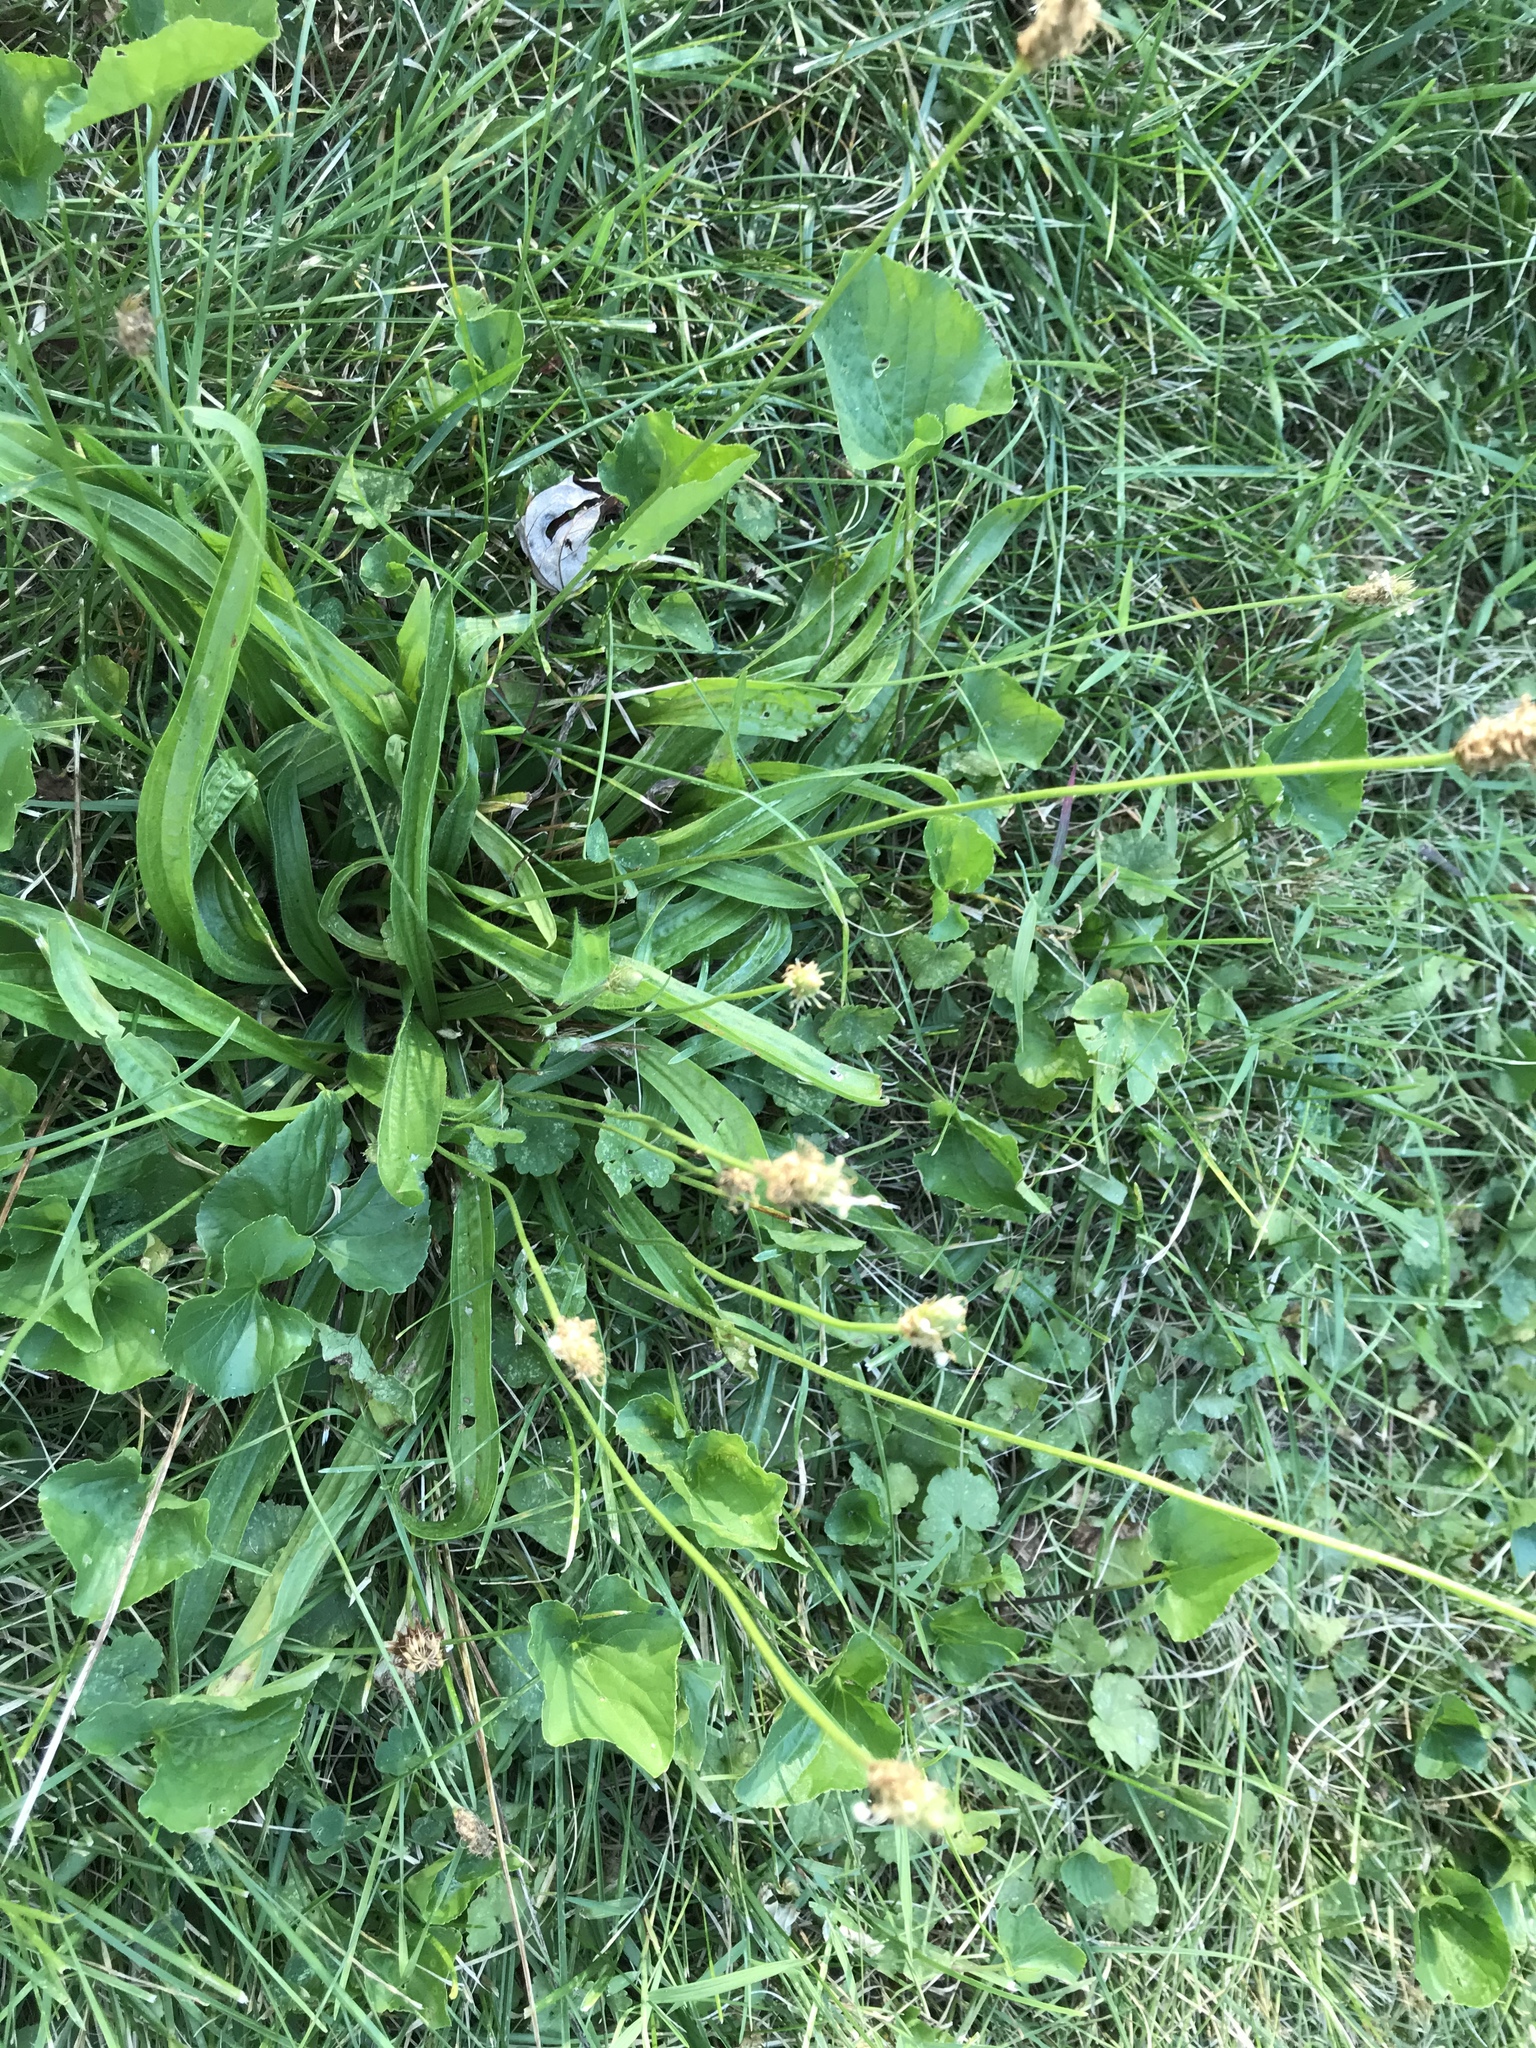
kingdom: Plantae
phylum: Tracheophyta
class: Magnoliopsida
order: Lamiales
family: Plantaginaceae
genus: Plantago
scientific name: Plantago lanceolata
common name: Ribwort plantain
